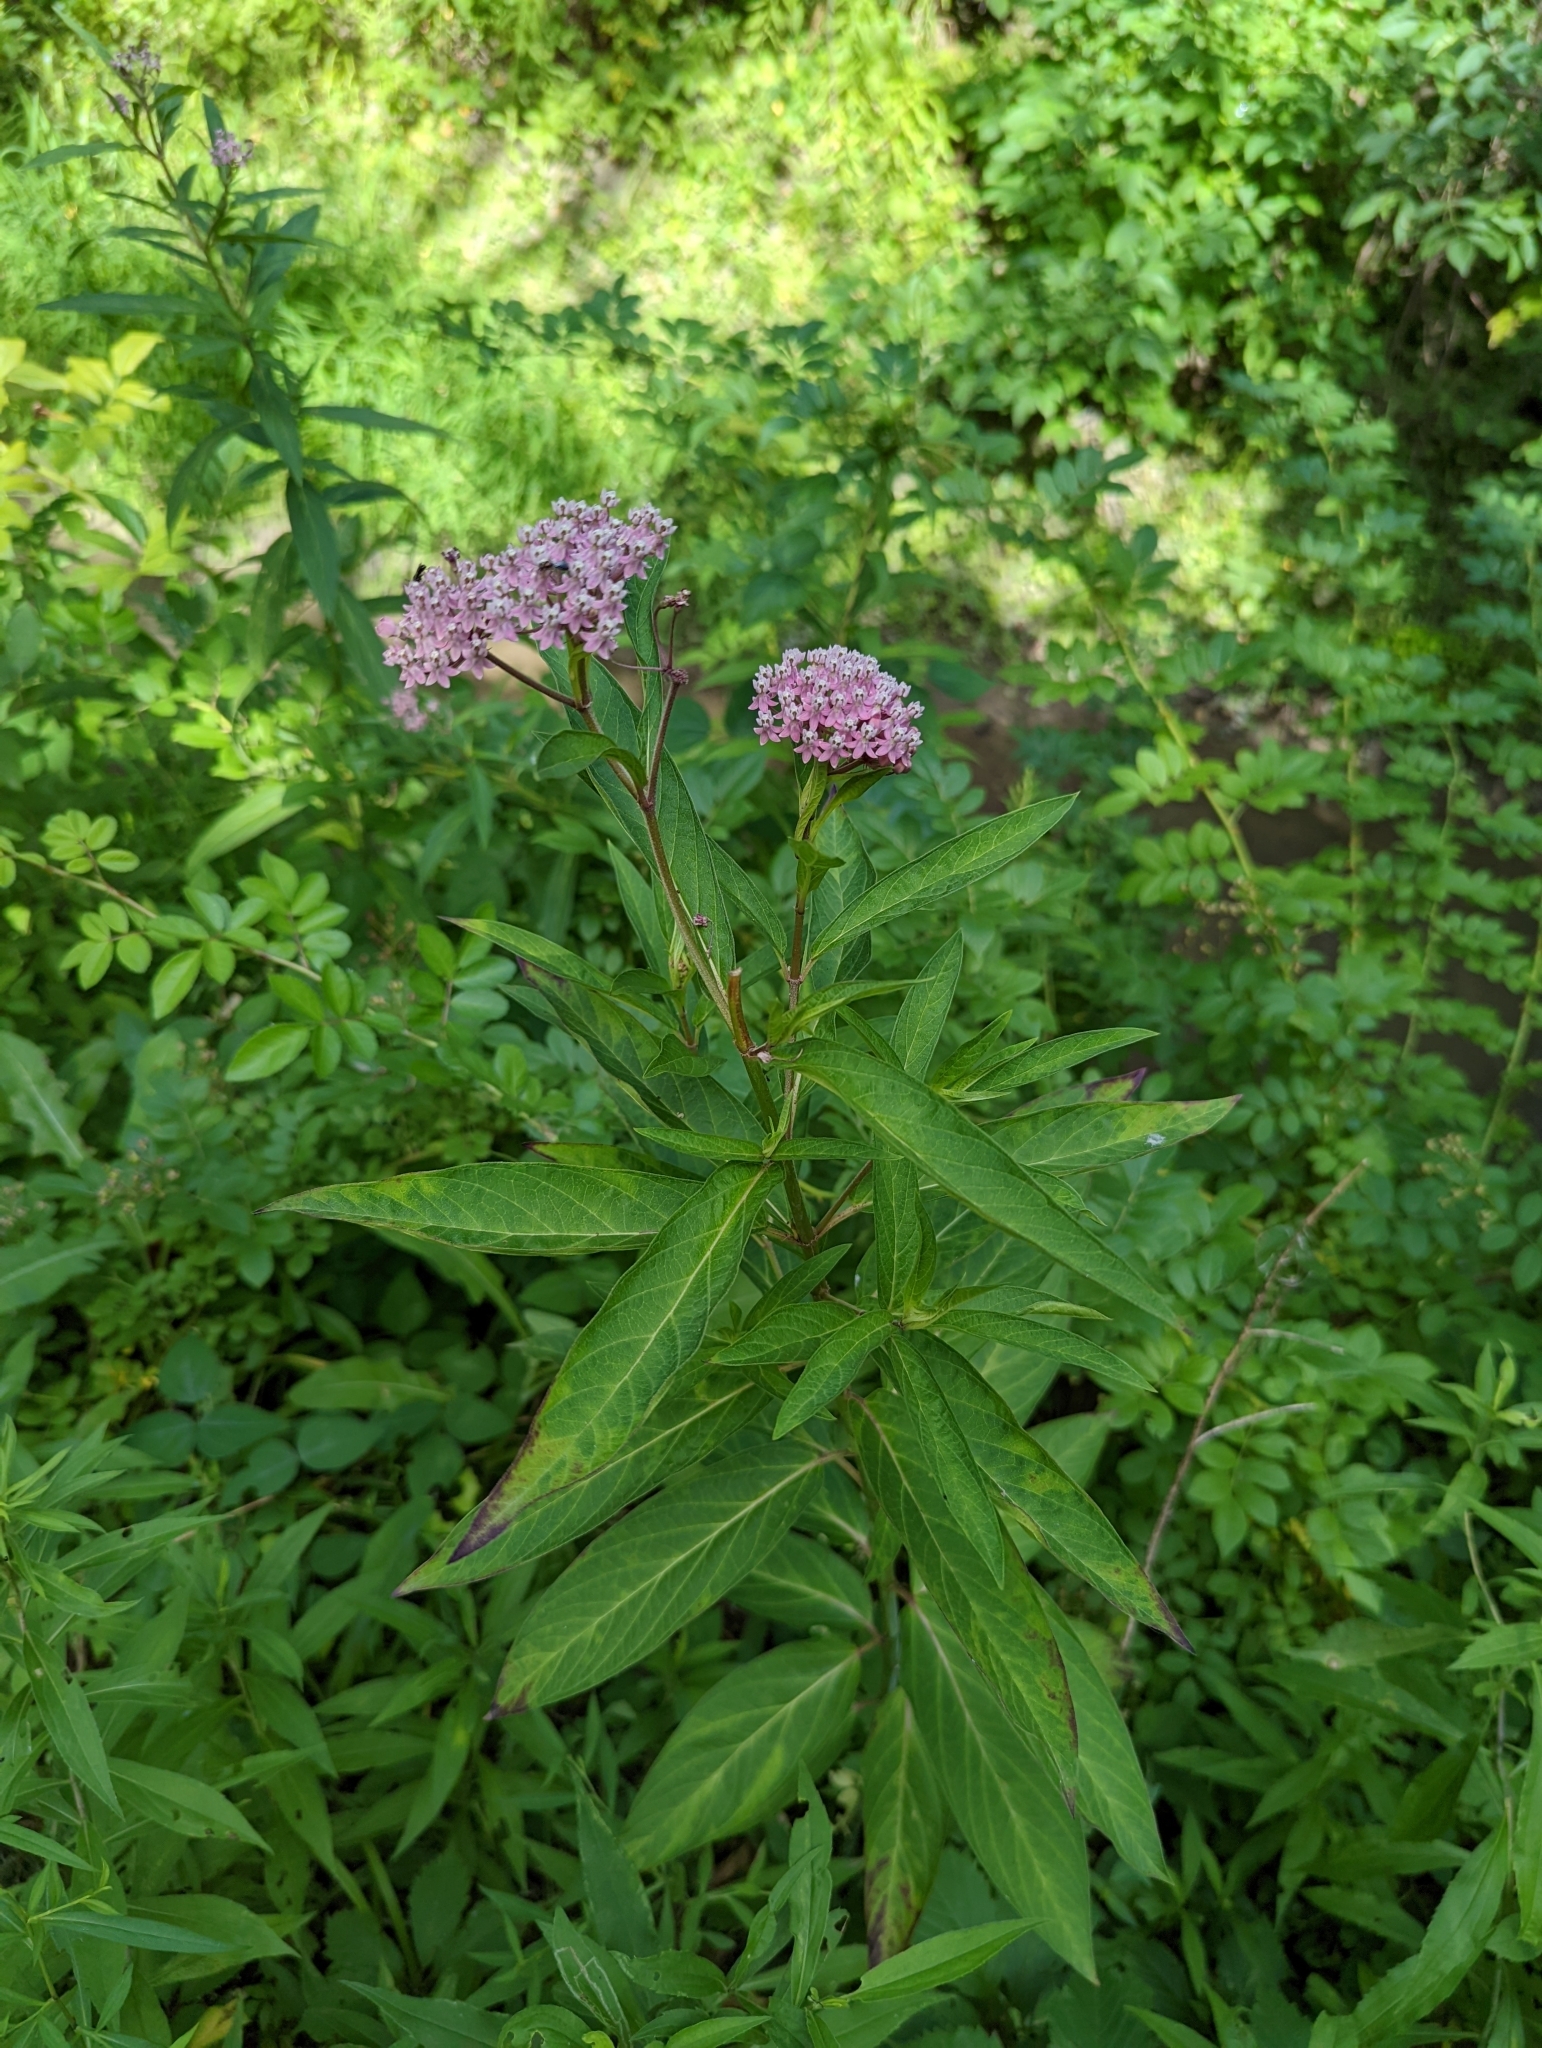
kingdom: Plantae
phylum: Tracheophyta
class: Magnoliopsida
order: Gentianales
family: Apocynaceae
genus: Asclepias
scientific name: Asclepias incarnata
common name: Swamp milkweed
